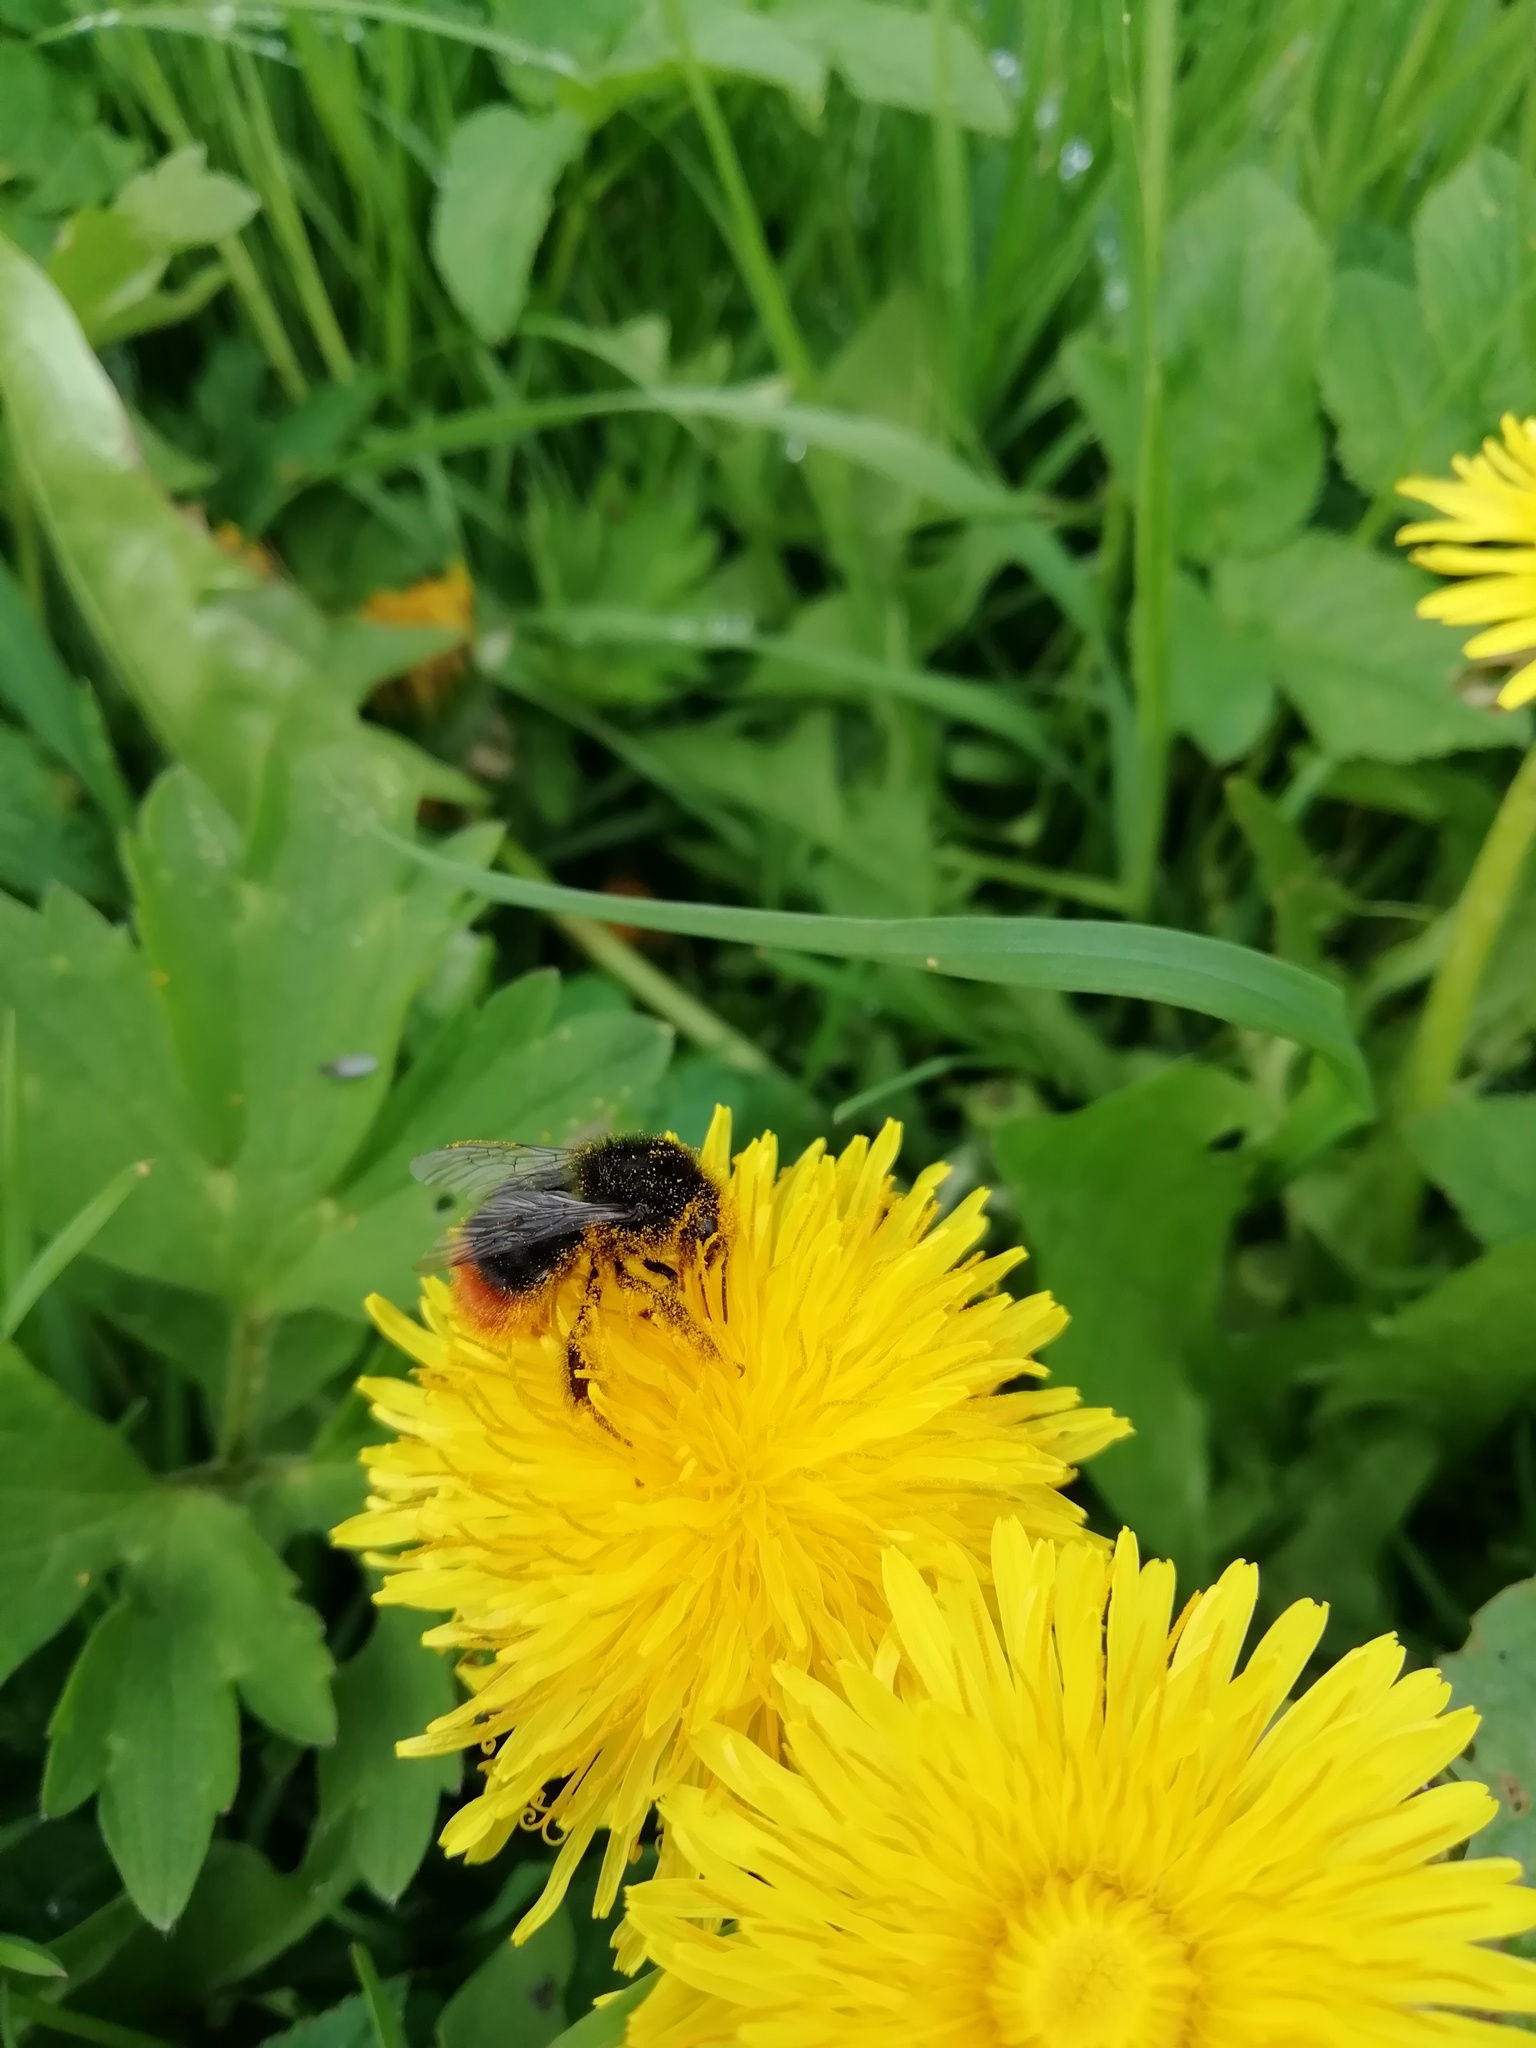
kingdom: Animalia
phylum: Arthropoda
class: Insecta
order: Hymenoptera
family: Apidae
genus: Bombus
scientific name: Bombus lapidarius
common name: Large red-tailed humble-bee
